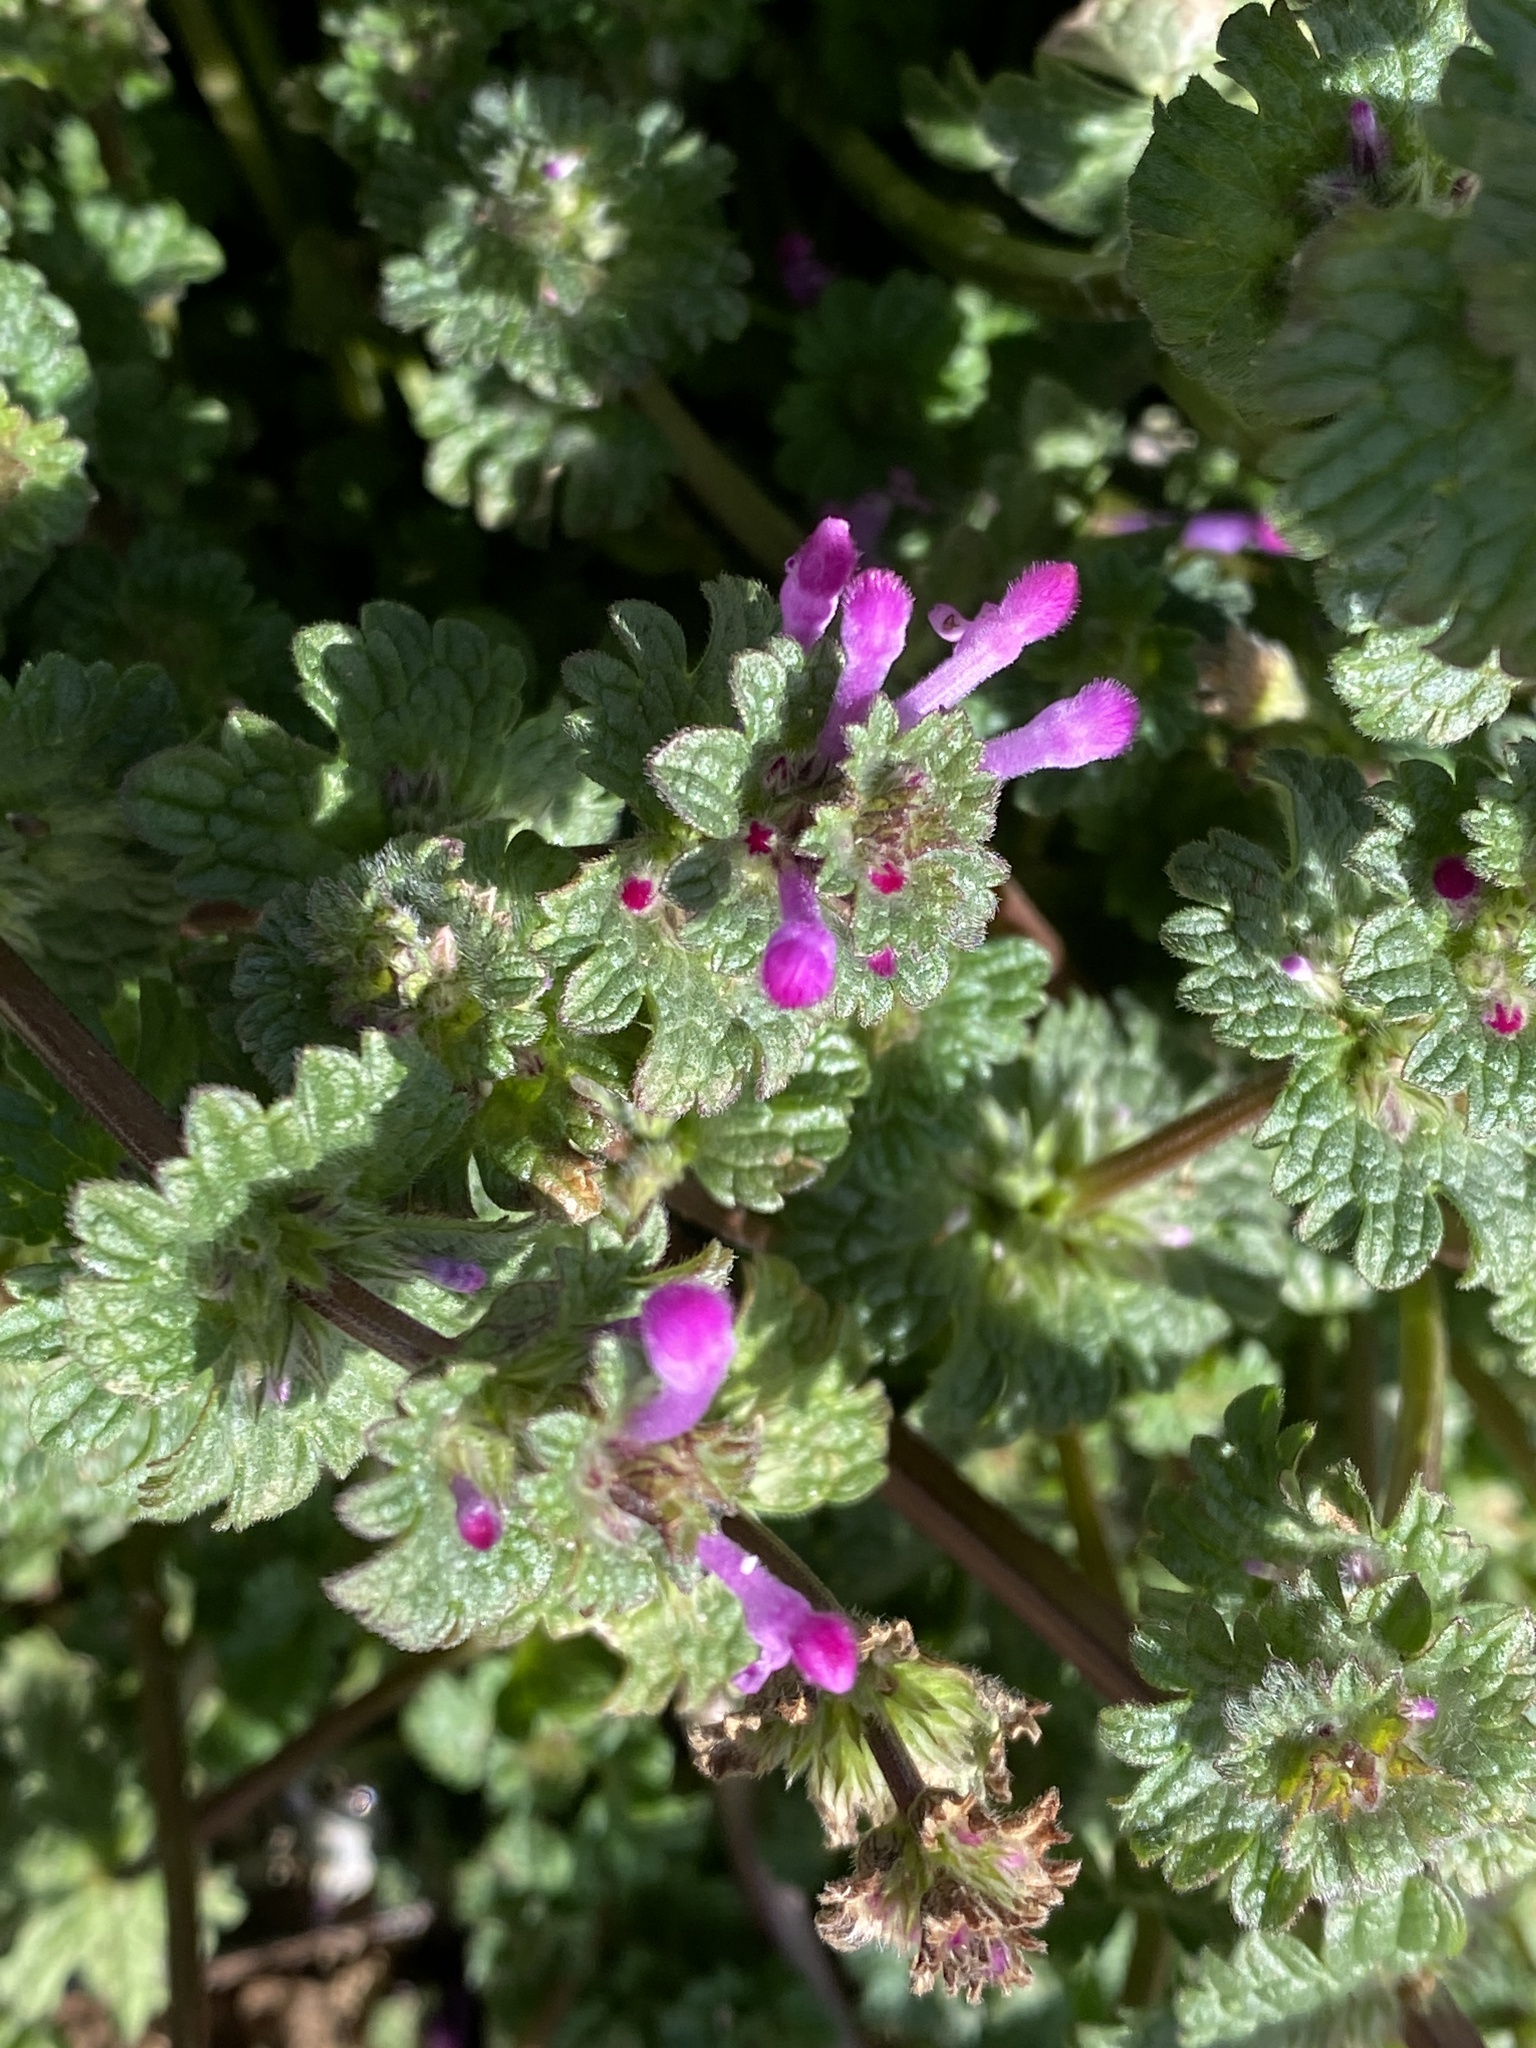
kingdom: Plantae
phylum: Tracheophyta
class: Magnoliopsida
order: Lamiales
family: Lamiaceae
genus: Lamium
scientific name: Lamium amplexicaule
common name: Henbit dead-nettle
